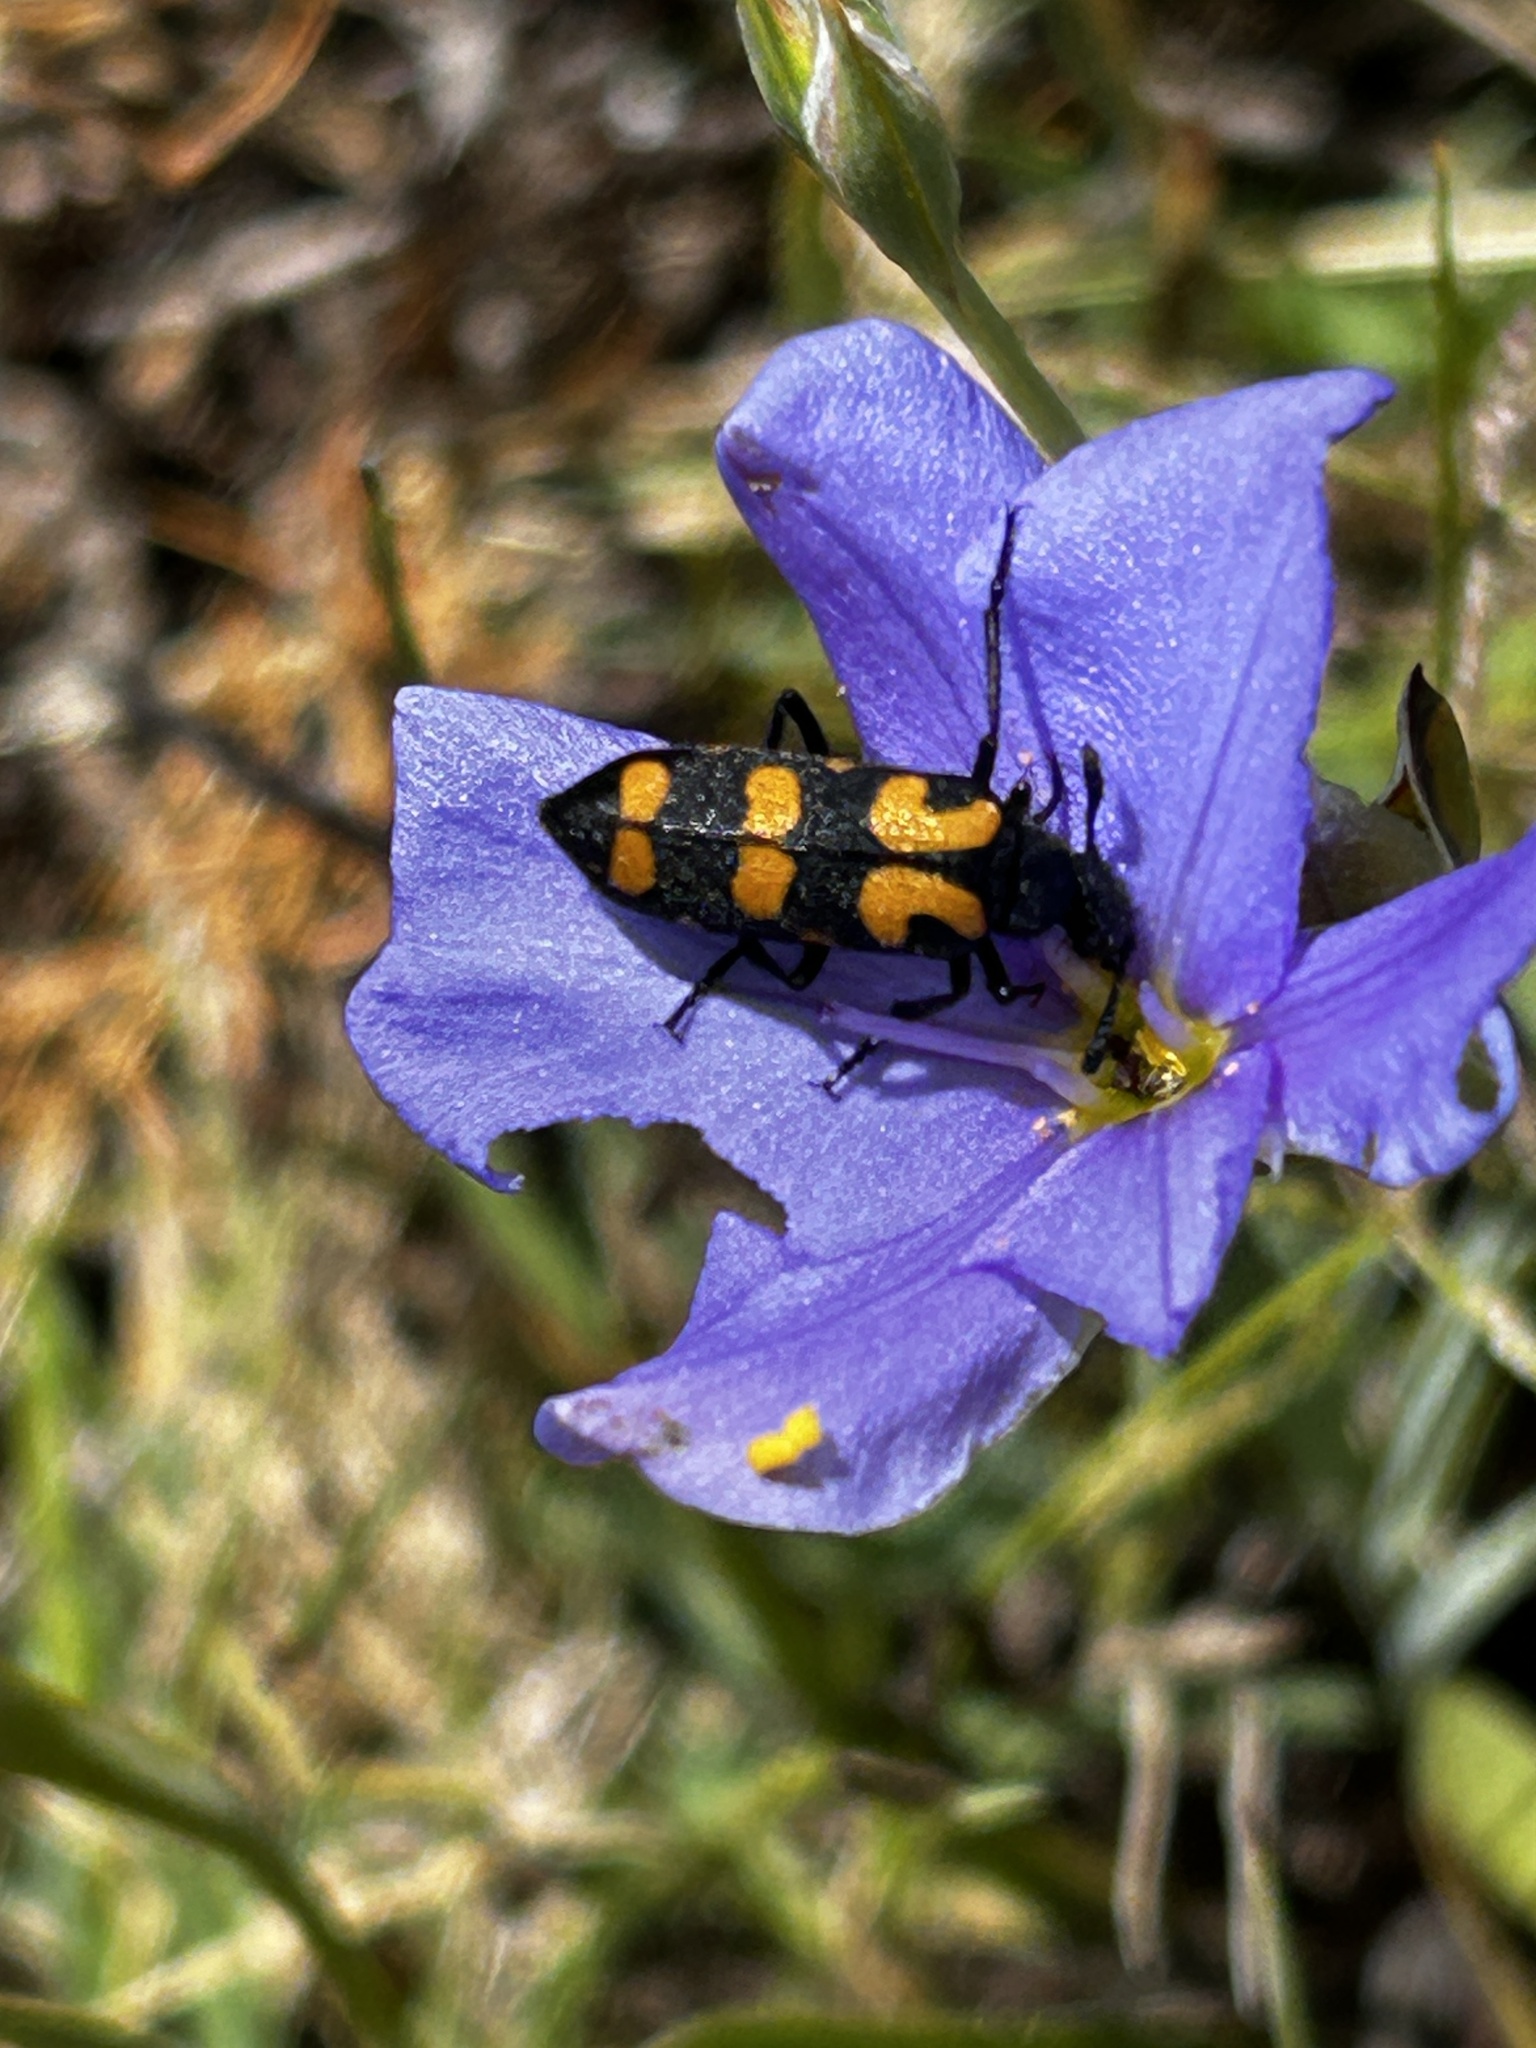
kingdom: Animalia
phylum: Arthropoda
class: Insecta
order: Coleoptera
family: Meloidae
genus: Ceroctis
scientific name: Ceroctis capensis
